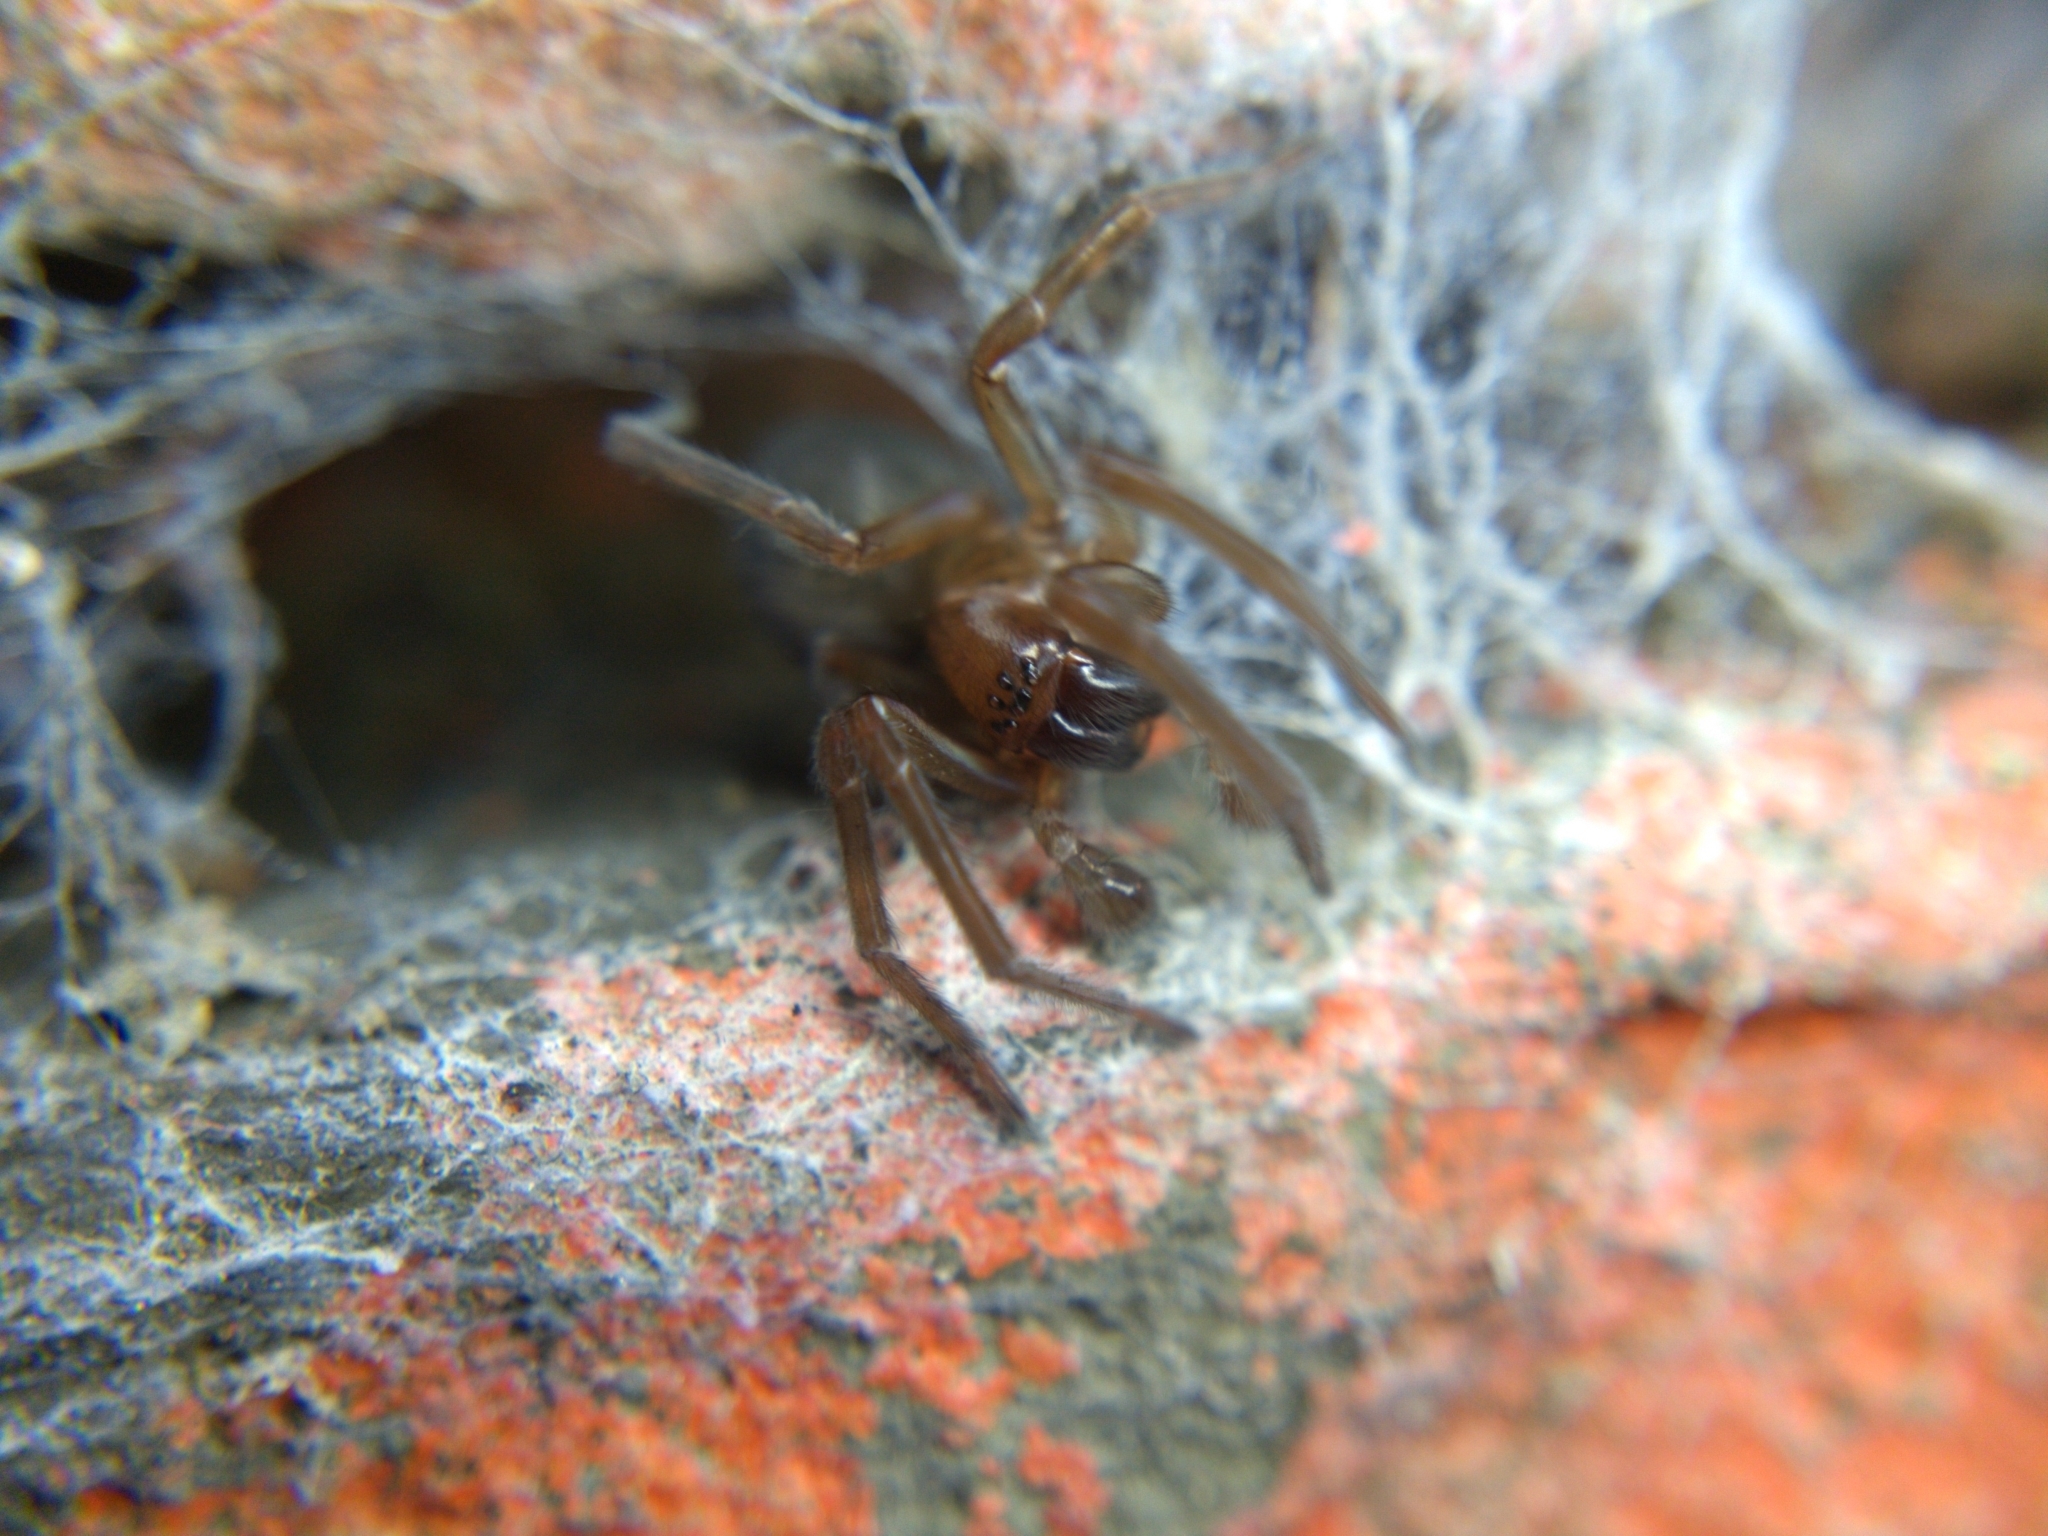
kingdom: Animalia
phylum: Arthropoda
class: Arachnida
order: Araneae
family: Amaurobiidae
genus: Amaurobius
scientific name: Amaurobius ferox
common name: Black laceweaver
